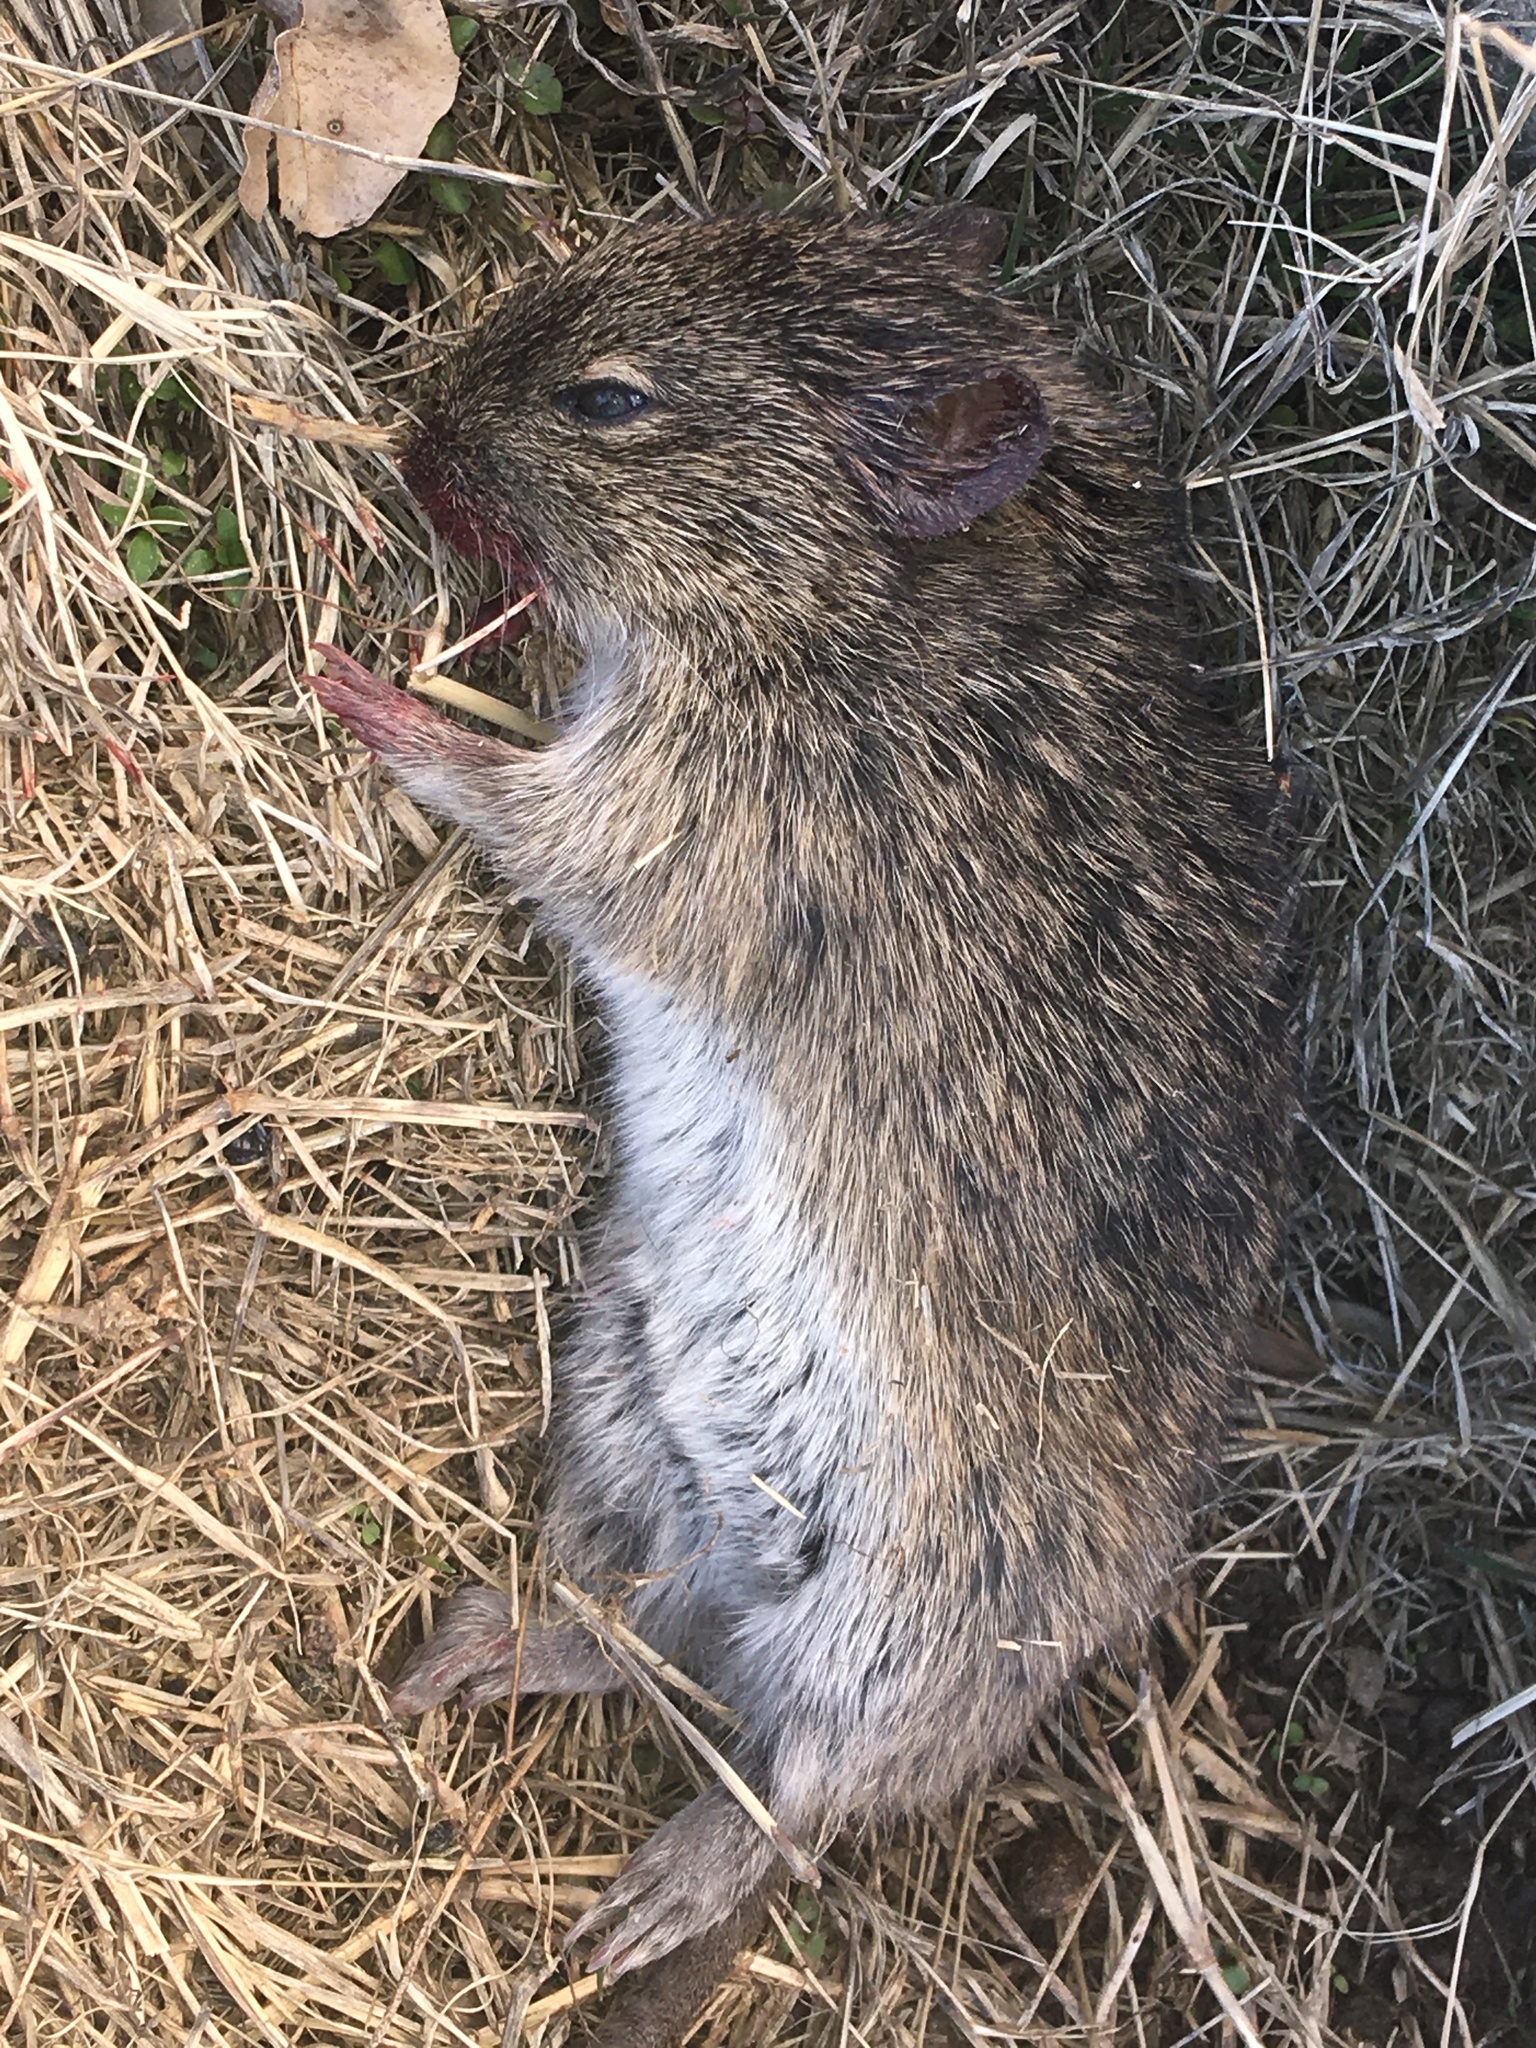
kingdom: Animalia
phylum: Chordata
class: Mammalia
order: Rodentia
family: Cricetidae
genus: Sigmodon
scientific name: Sigmodon hispidus
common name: Hispid cotton rat
